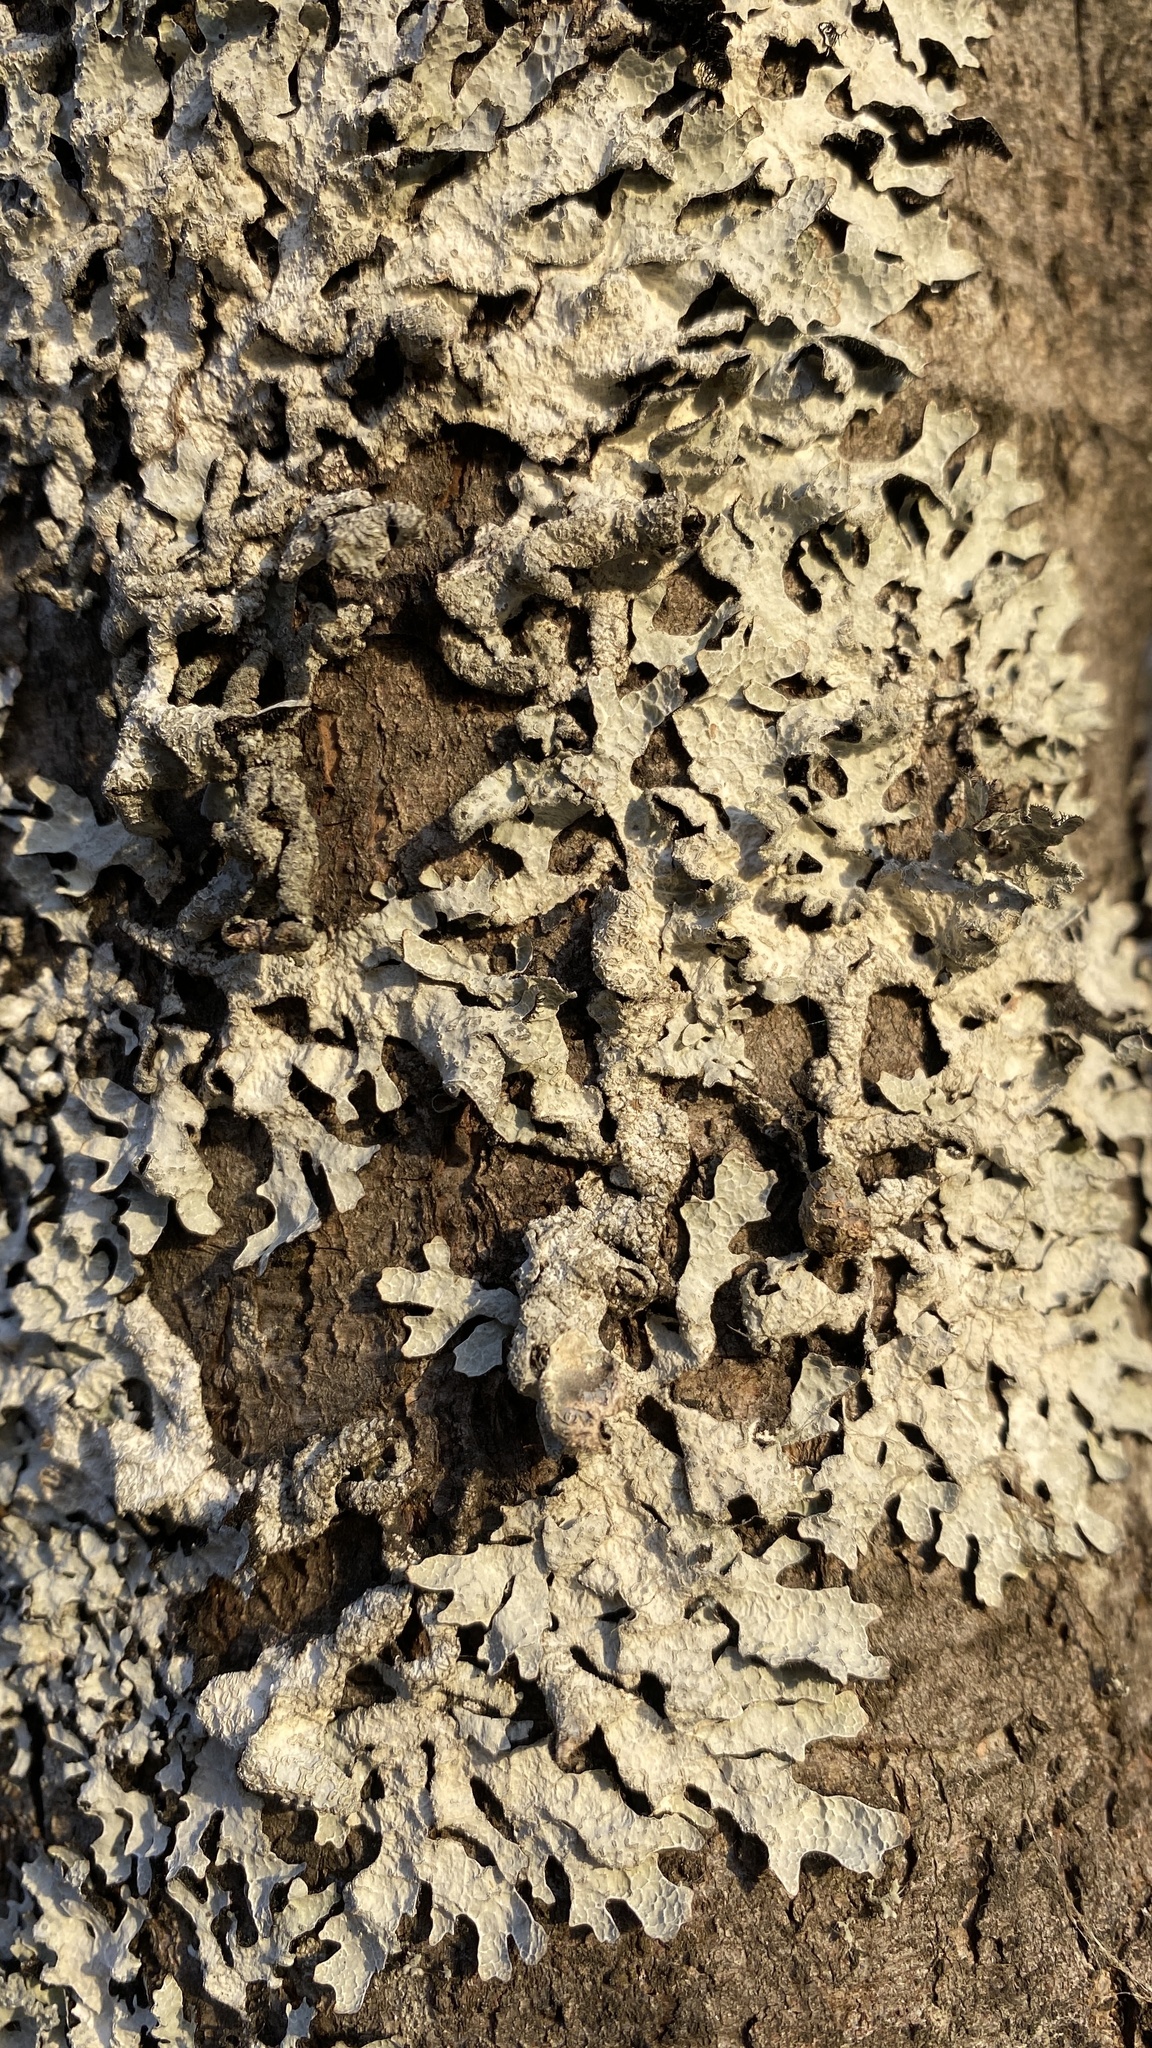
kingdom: Fungi
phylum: Ascomycota
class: Lecanoromycetes
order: Lecanorales
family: Parmeliaceae
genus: Parmelia
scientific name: Parmelia sulcata
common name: Netted shield lichen
